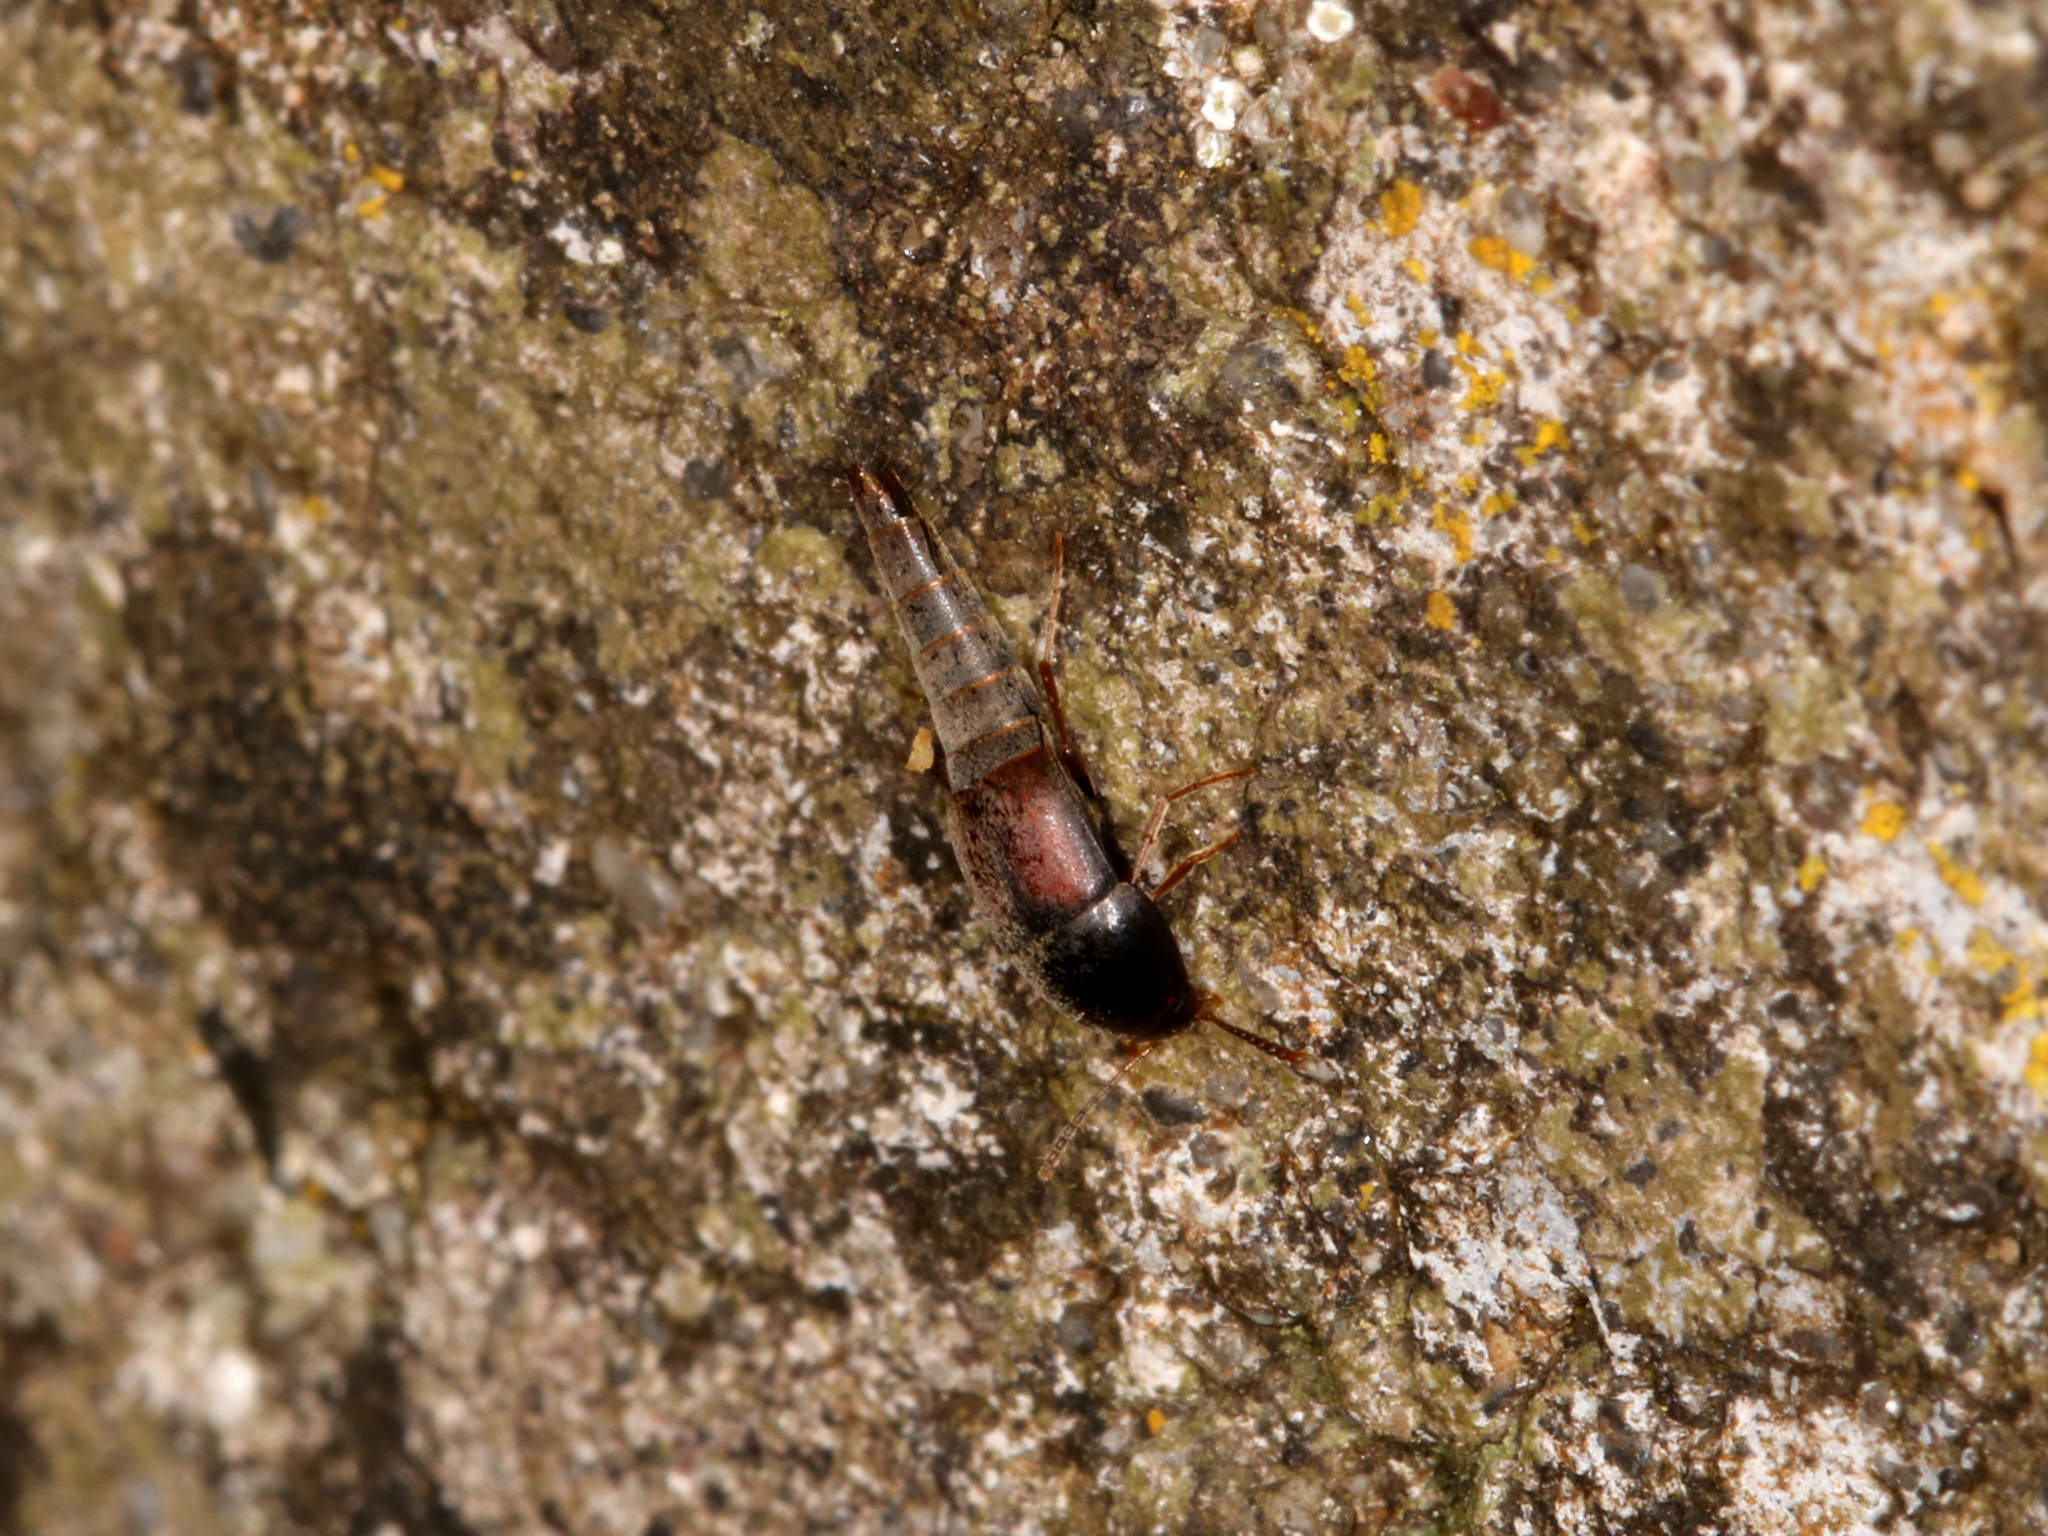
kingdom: Animalia
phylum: Arthropoda
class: Insecta
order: Coleoptera
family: Staphylinidae
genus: Sepedophilus
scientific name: Sepedophilus marshami
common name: Staph beetle
